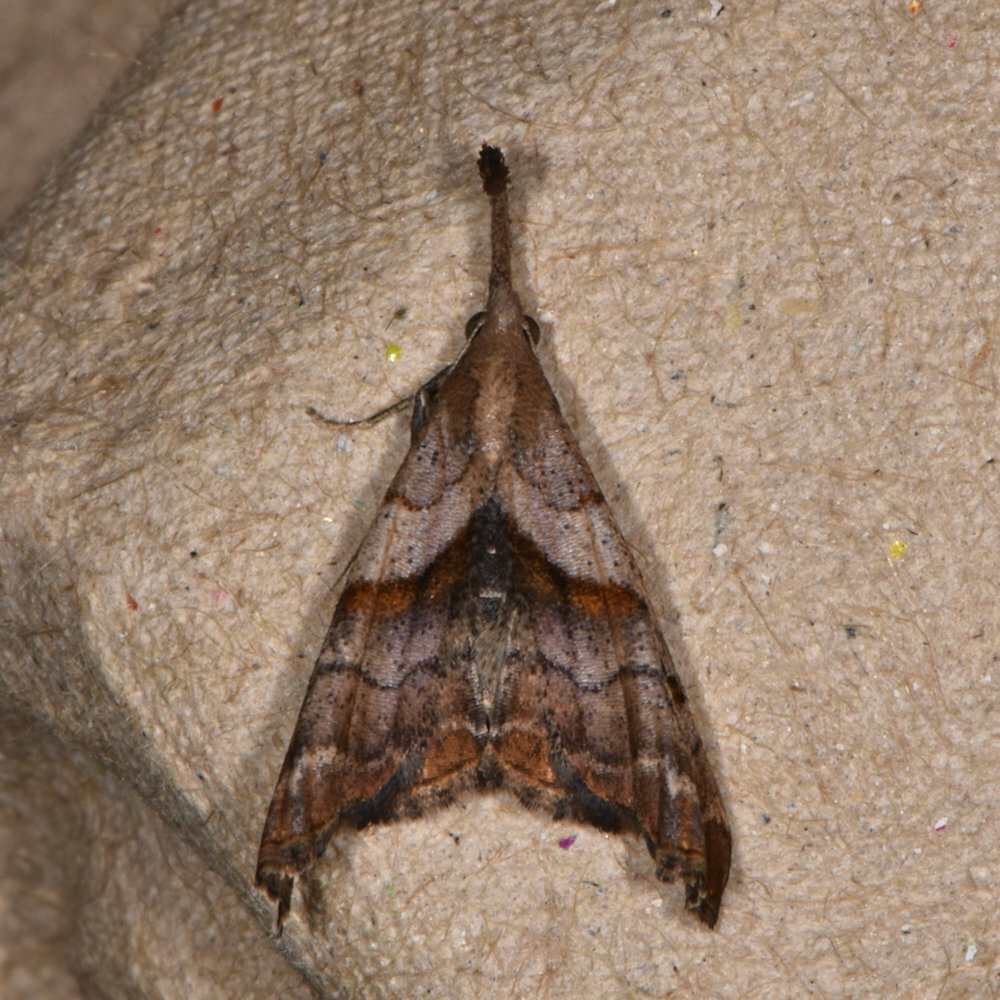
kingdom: Animalia
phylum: Arthropoda
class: Insecta
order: Lepidoptera
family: Erebidae
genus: Palthis
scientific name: Palthis angulalis
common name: Dark-spotted palthis moth
